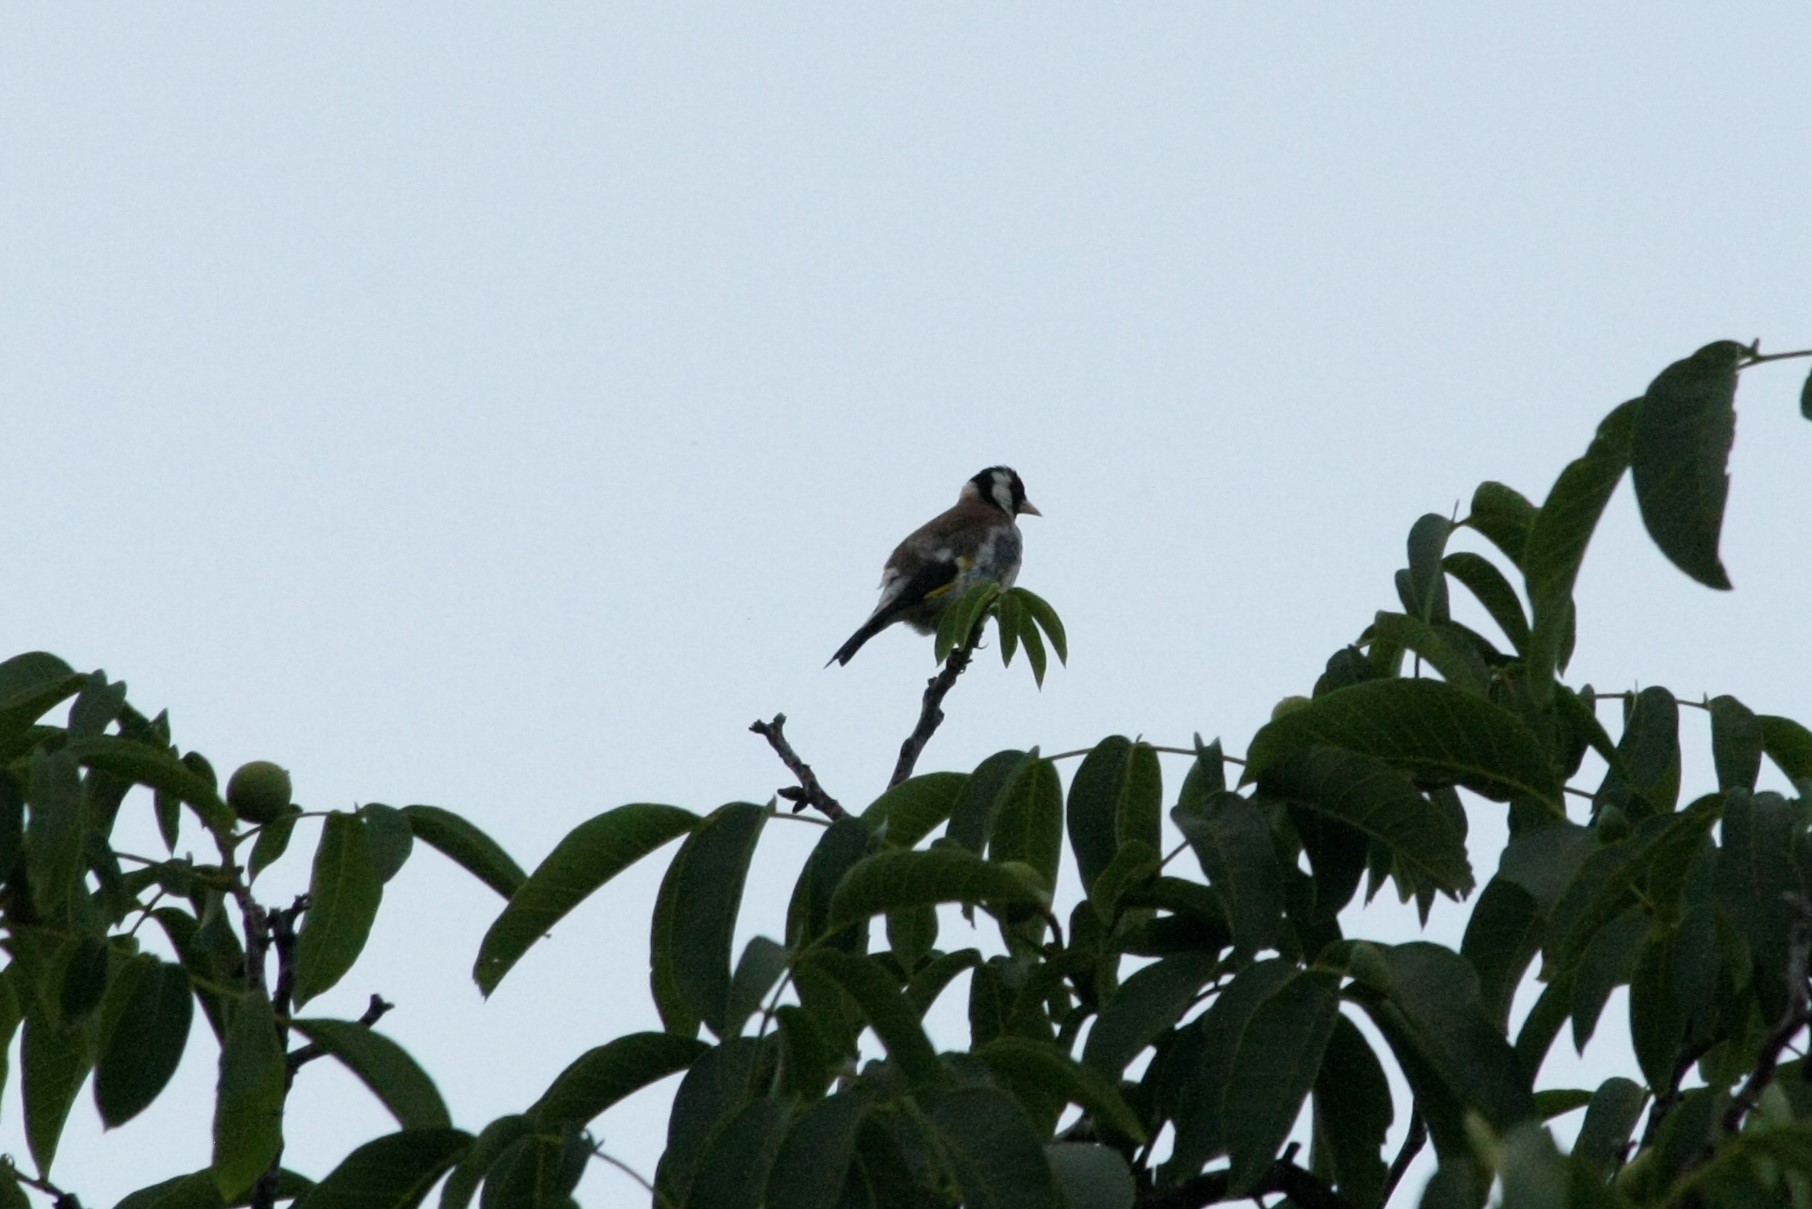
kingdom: Animalia
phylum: Chordata
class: Aves
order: Passeriformes
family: Fringillidae
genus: Carduelis
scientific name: Carduelis carduelis
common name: European goldfinch
